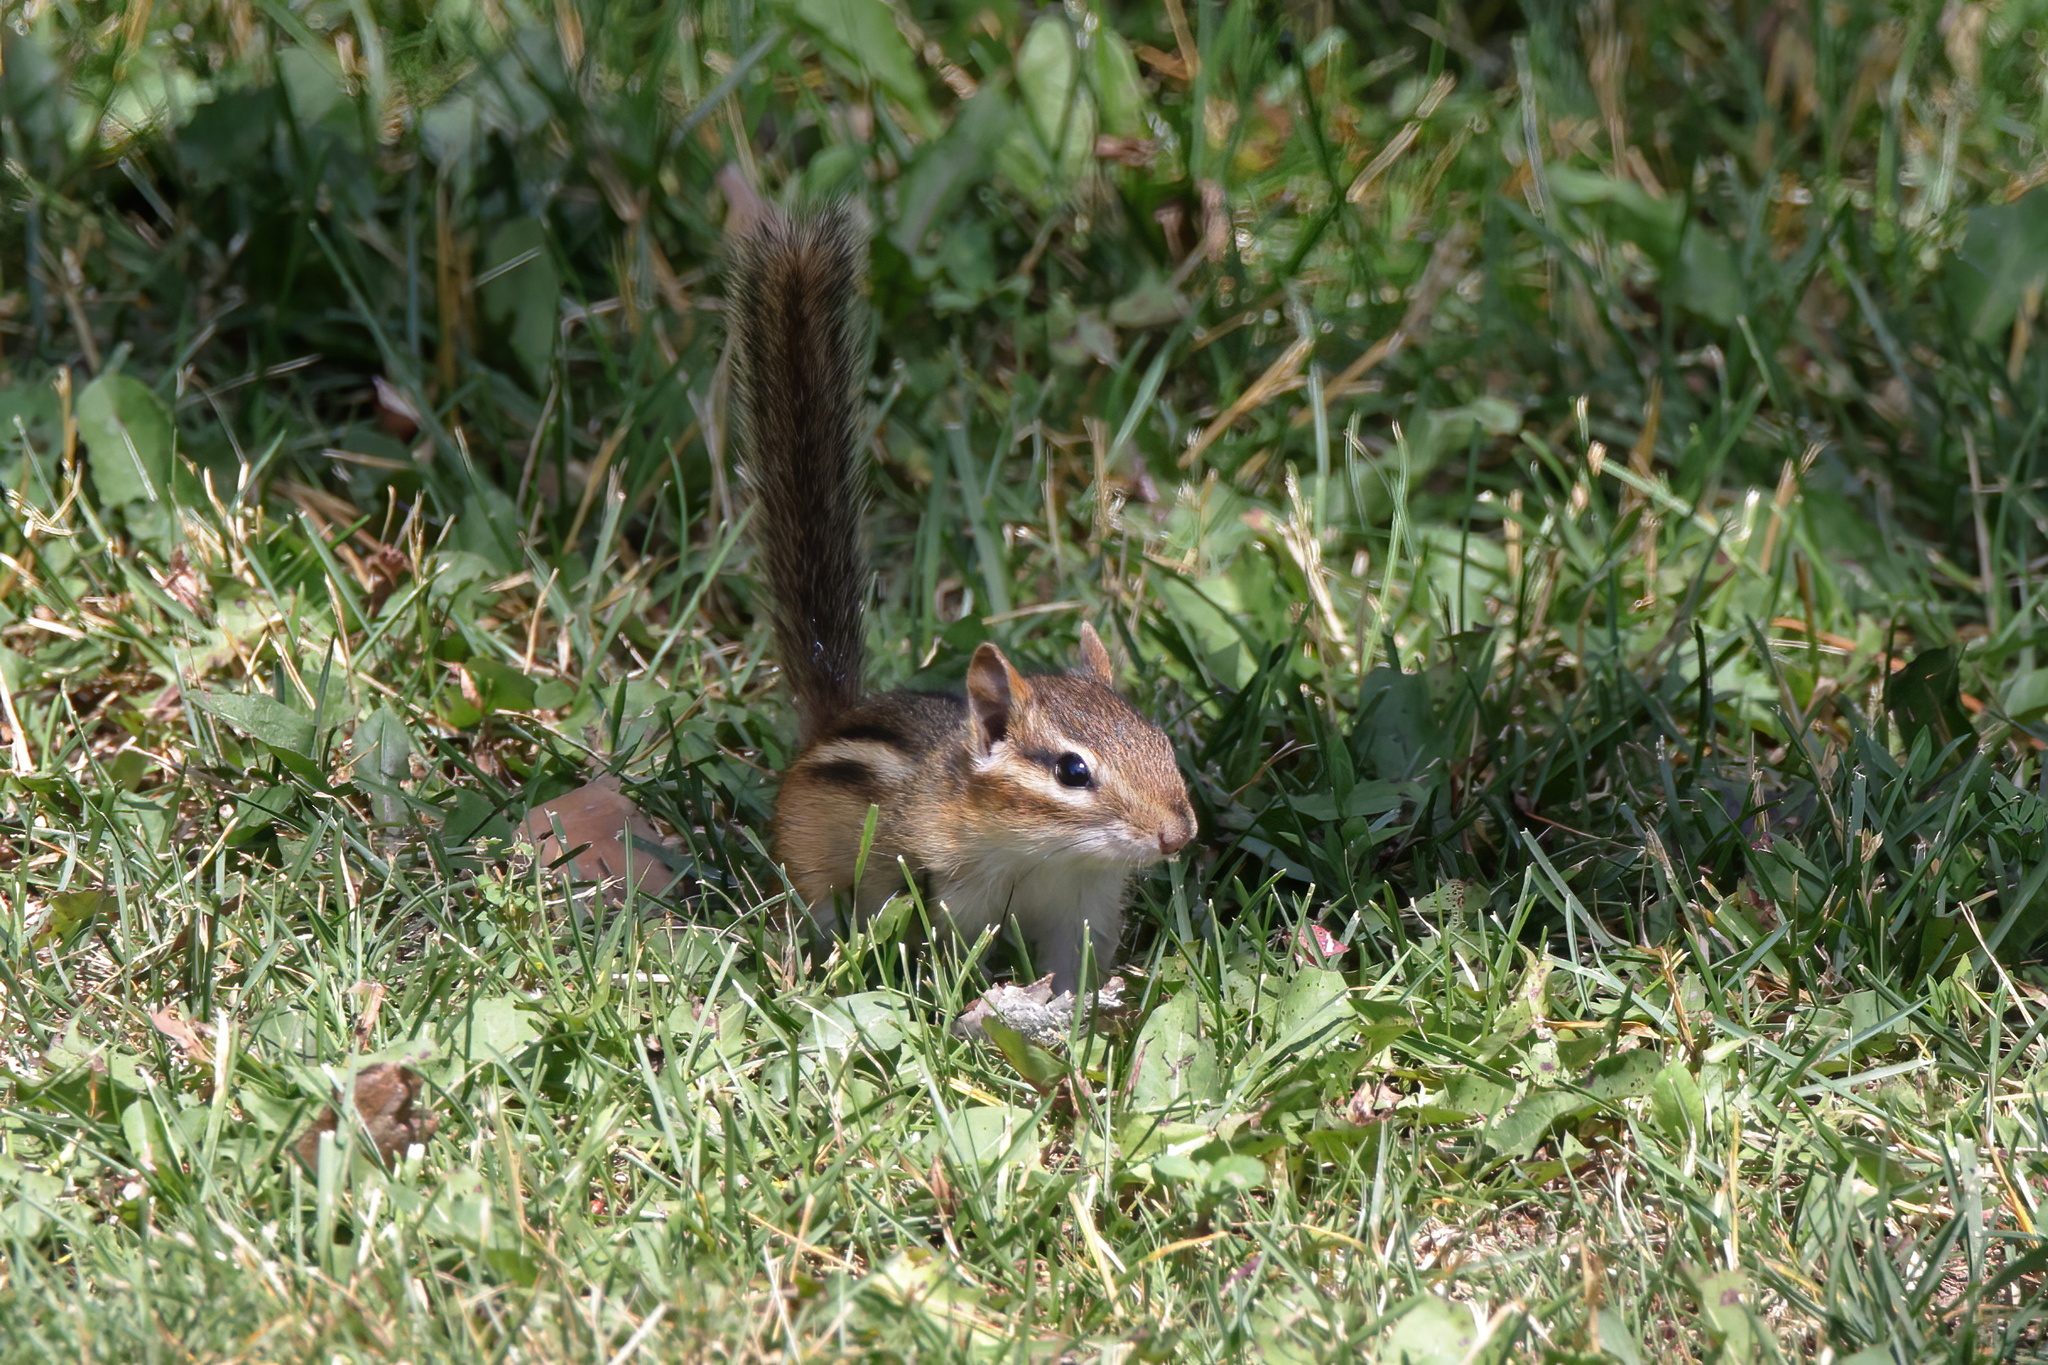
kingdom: Animalia
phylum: Chordata
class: Mammalia
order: Rodentia
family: Sciuridae
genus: Tamias
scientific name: Tamias striatus
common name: Eastern chipmunk
